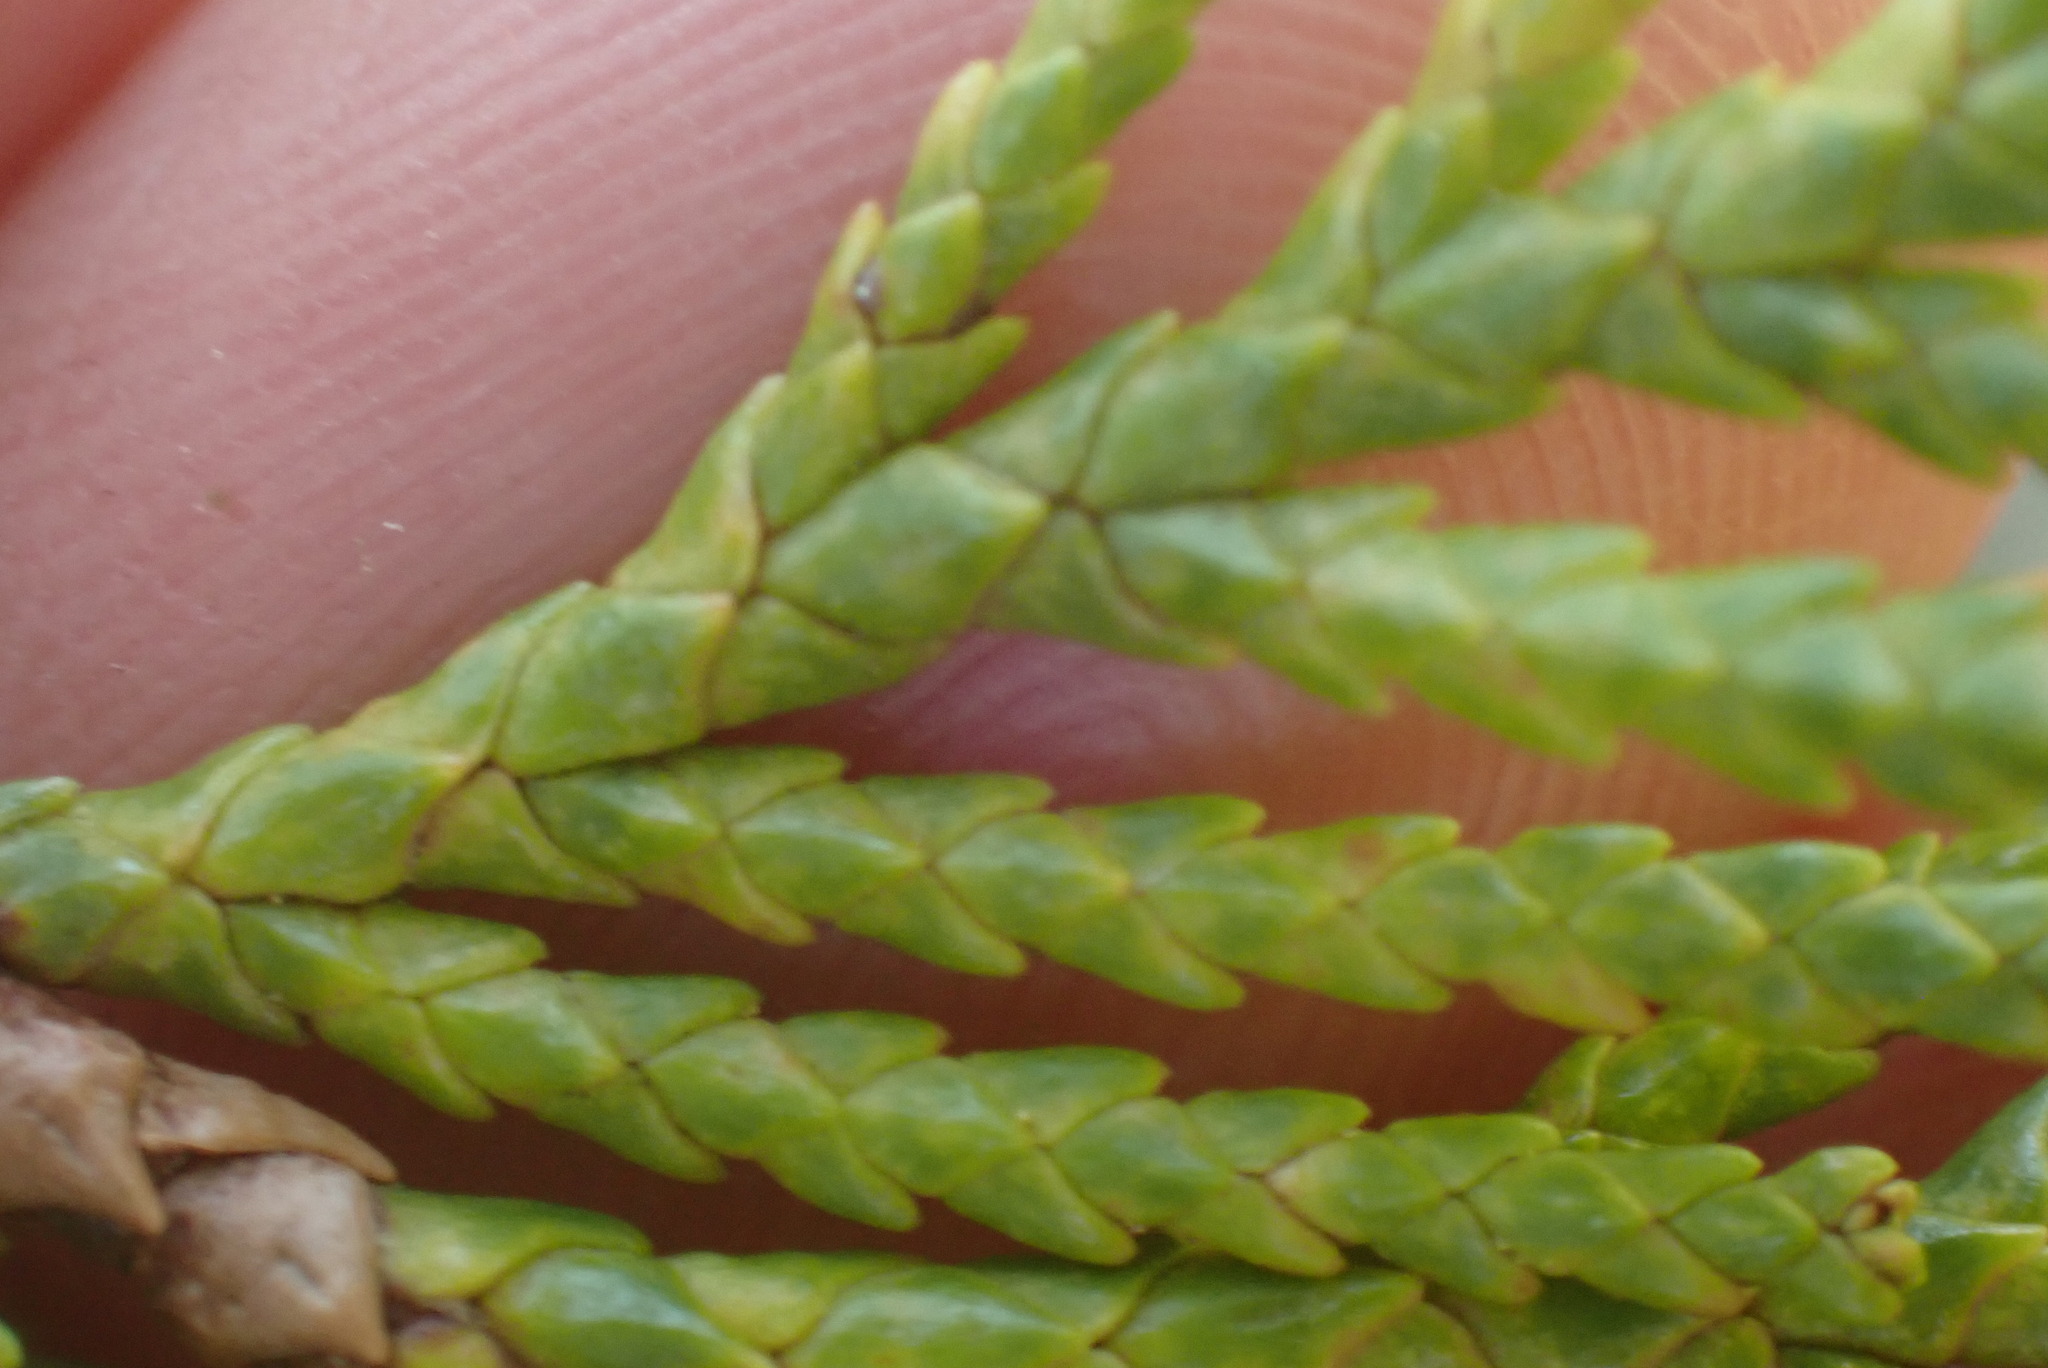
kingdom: Plantae
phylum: Tracheophyta
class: Pinopsida
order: Pinales
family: Cupressaceae
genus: Xanthocyparis
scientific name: Xanthocyparis nootkatensis
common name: Nootka cypress
